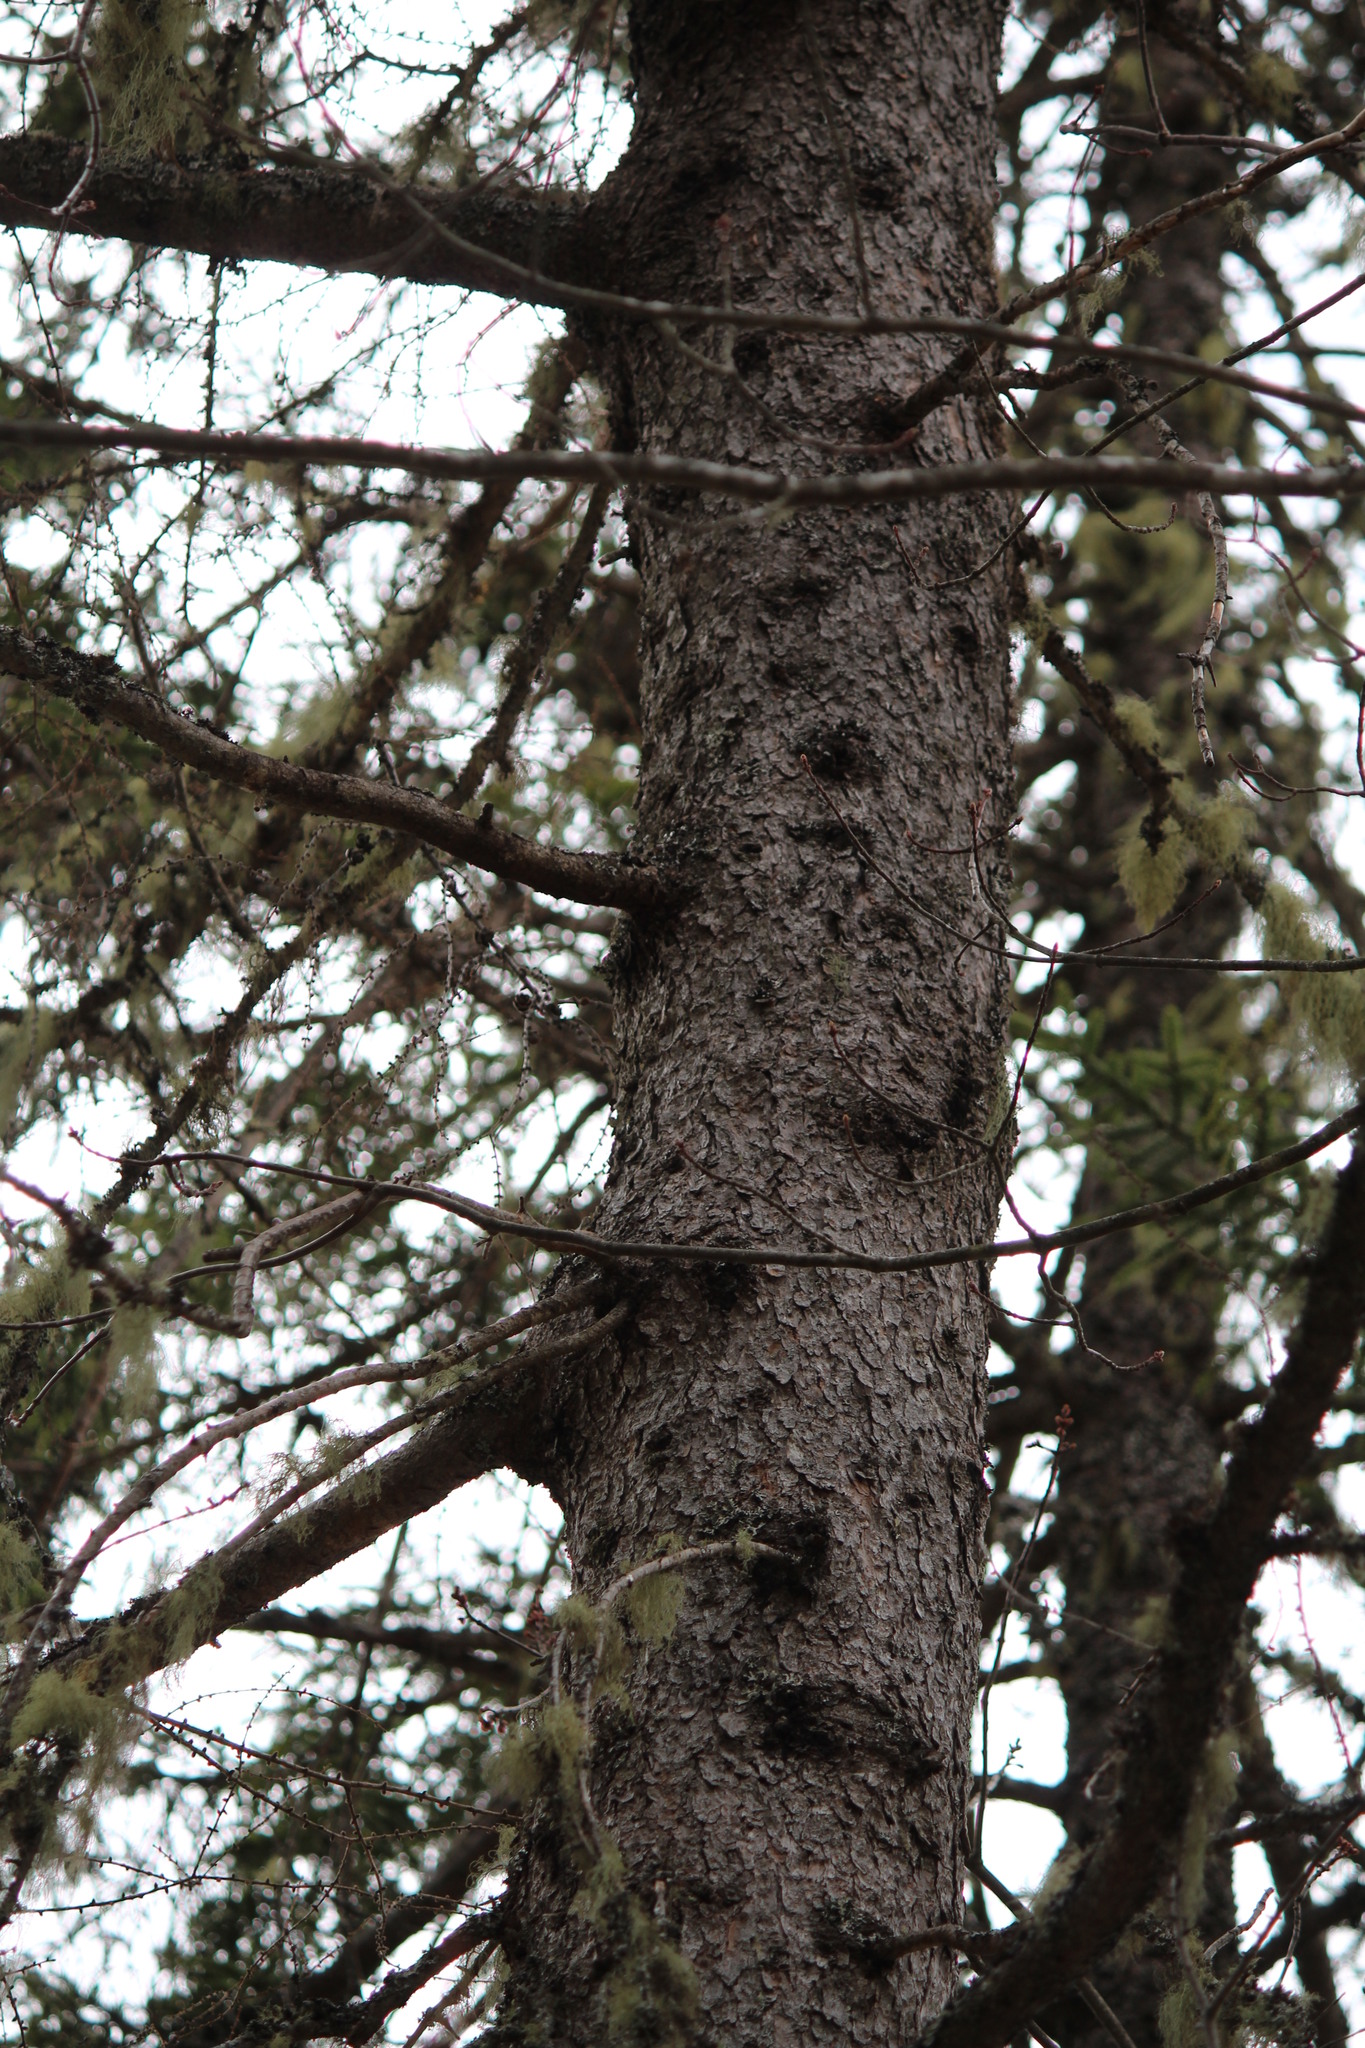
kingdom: Plantae
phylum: Tracheophyta
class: Pinopsida
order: Pinales
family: Pinaceae
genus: Larix
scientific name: Larix laricina
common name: American larch
